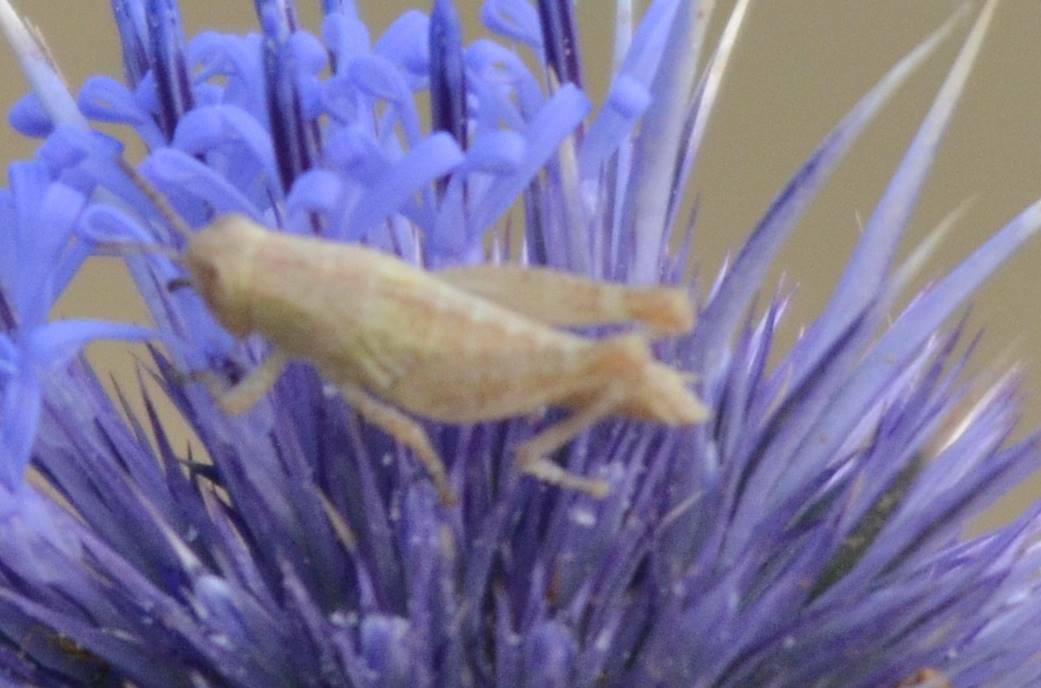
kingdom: Animalia
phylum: Arthropoda
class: Insecta
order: Orthoptera
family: Acrididae
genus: Pezotettix
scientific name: Pezotettix giornae
